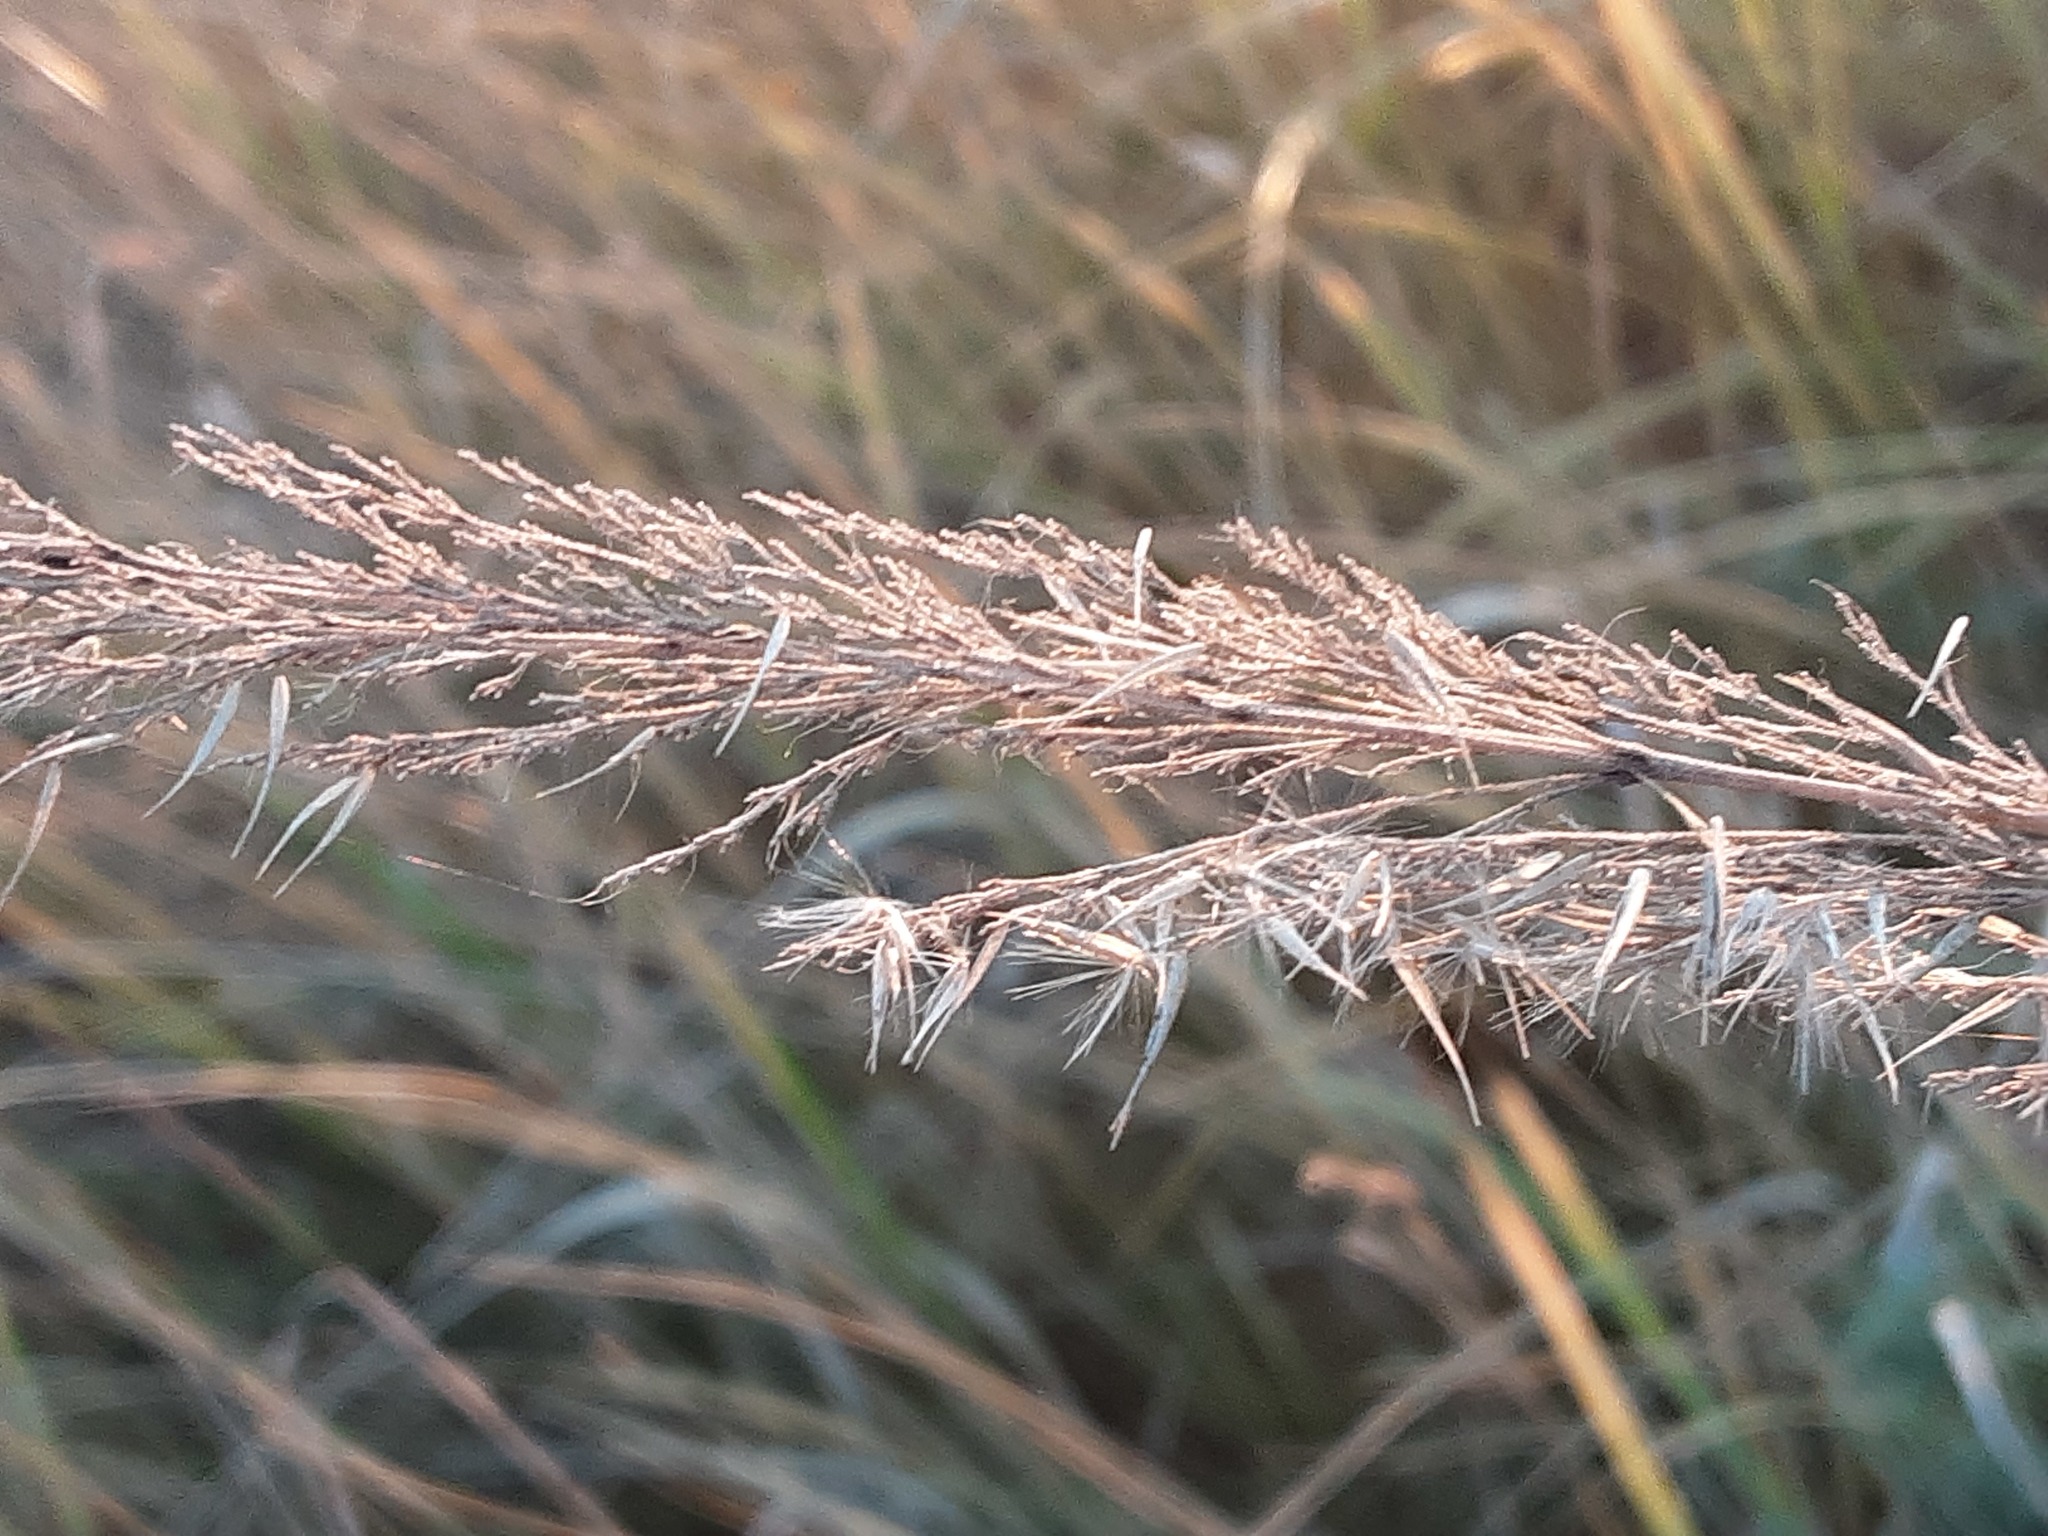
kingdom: Plantae
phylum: Tracheophyta
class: Liliopsida
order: Poales
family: Poaceae
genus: Calamagrostis
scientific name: Calamagrostis epigejos
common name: Wood small-reed
